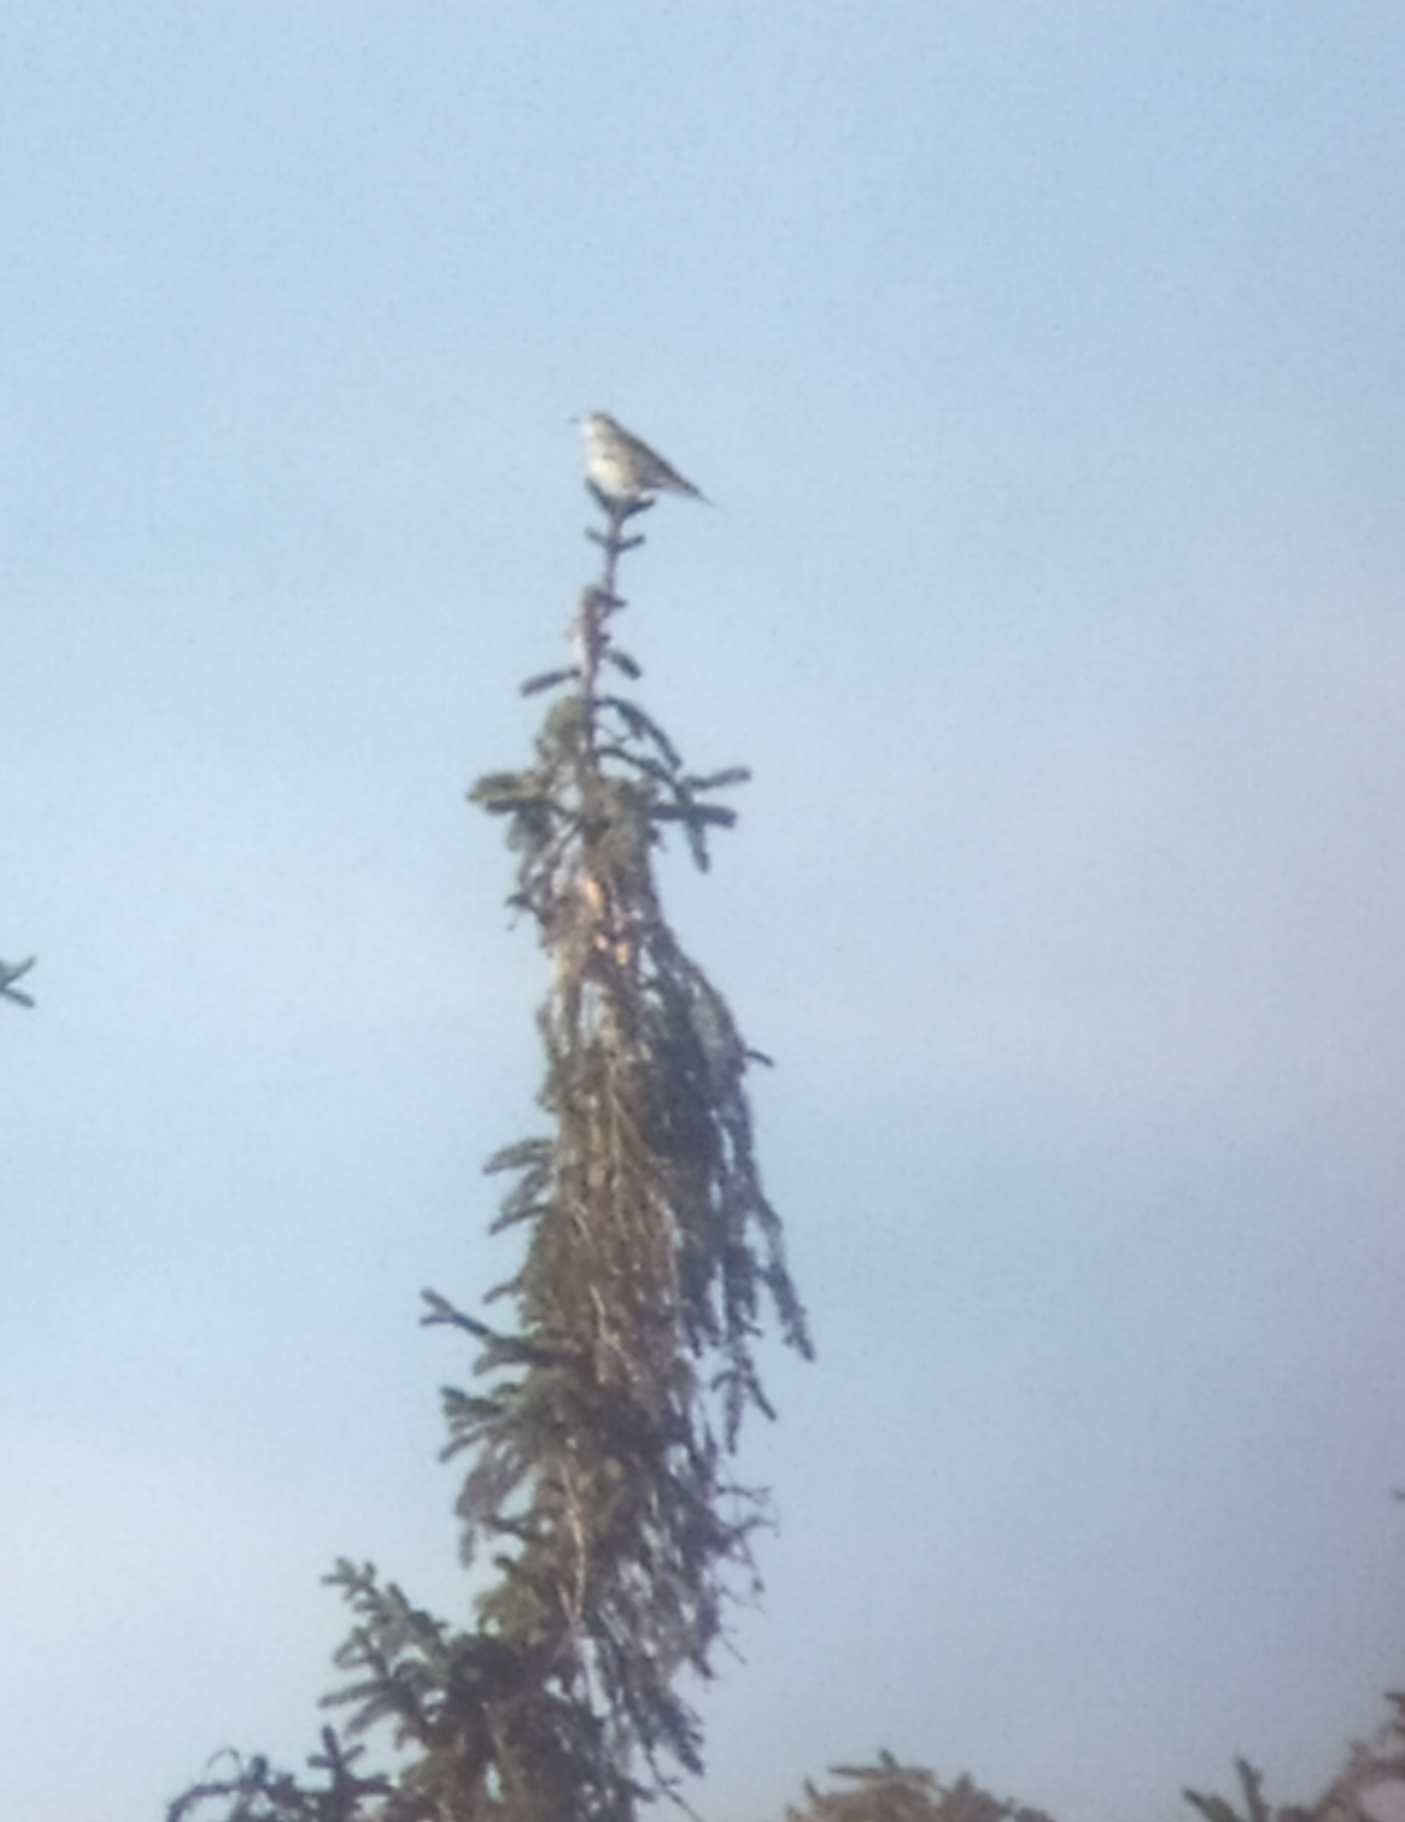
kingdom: Animalia
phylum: Chordata
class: Aves
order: Passeriformes
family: Turdidae
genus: Turdus
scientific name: Turdus viscivorus
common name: Mistle thrush
